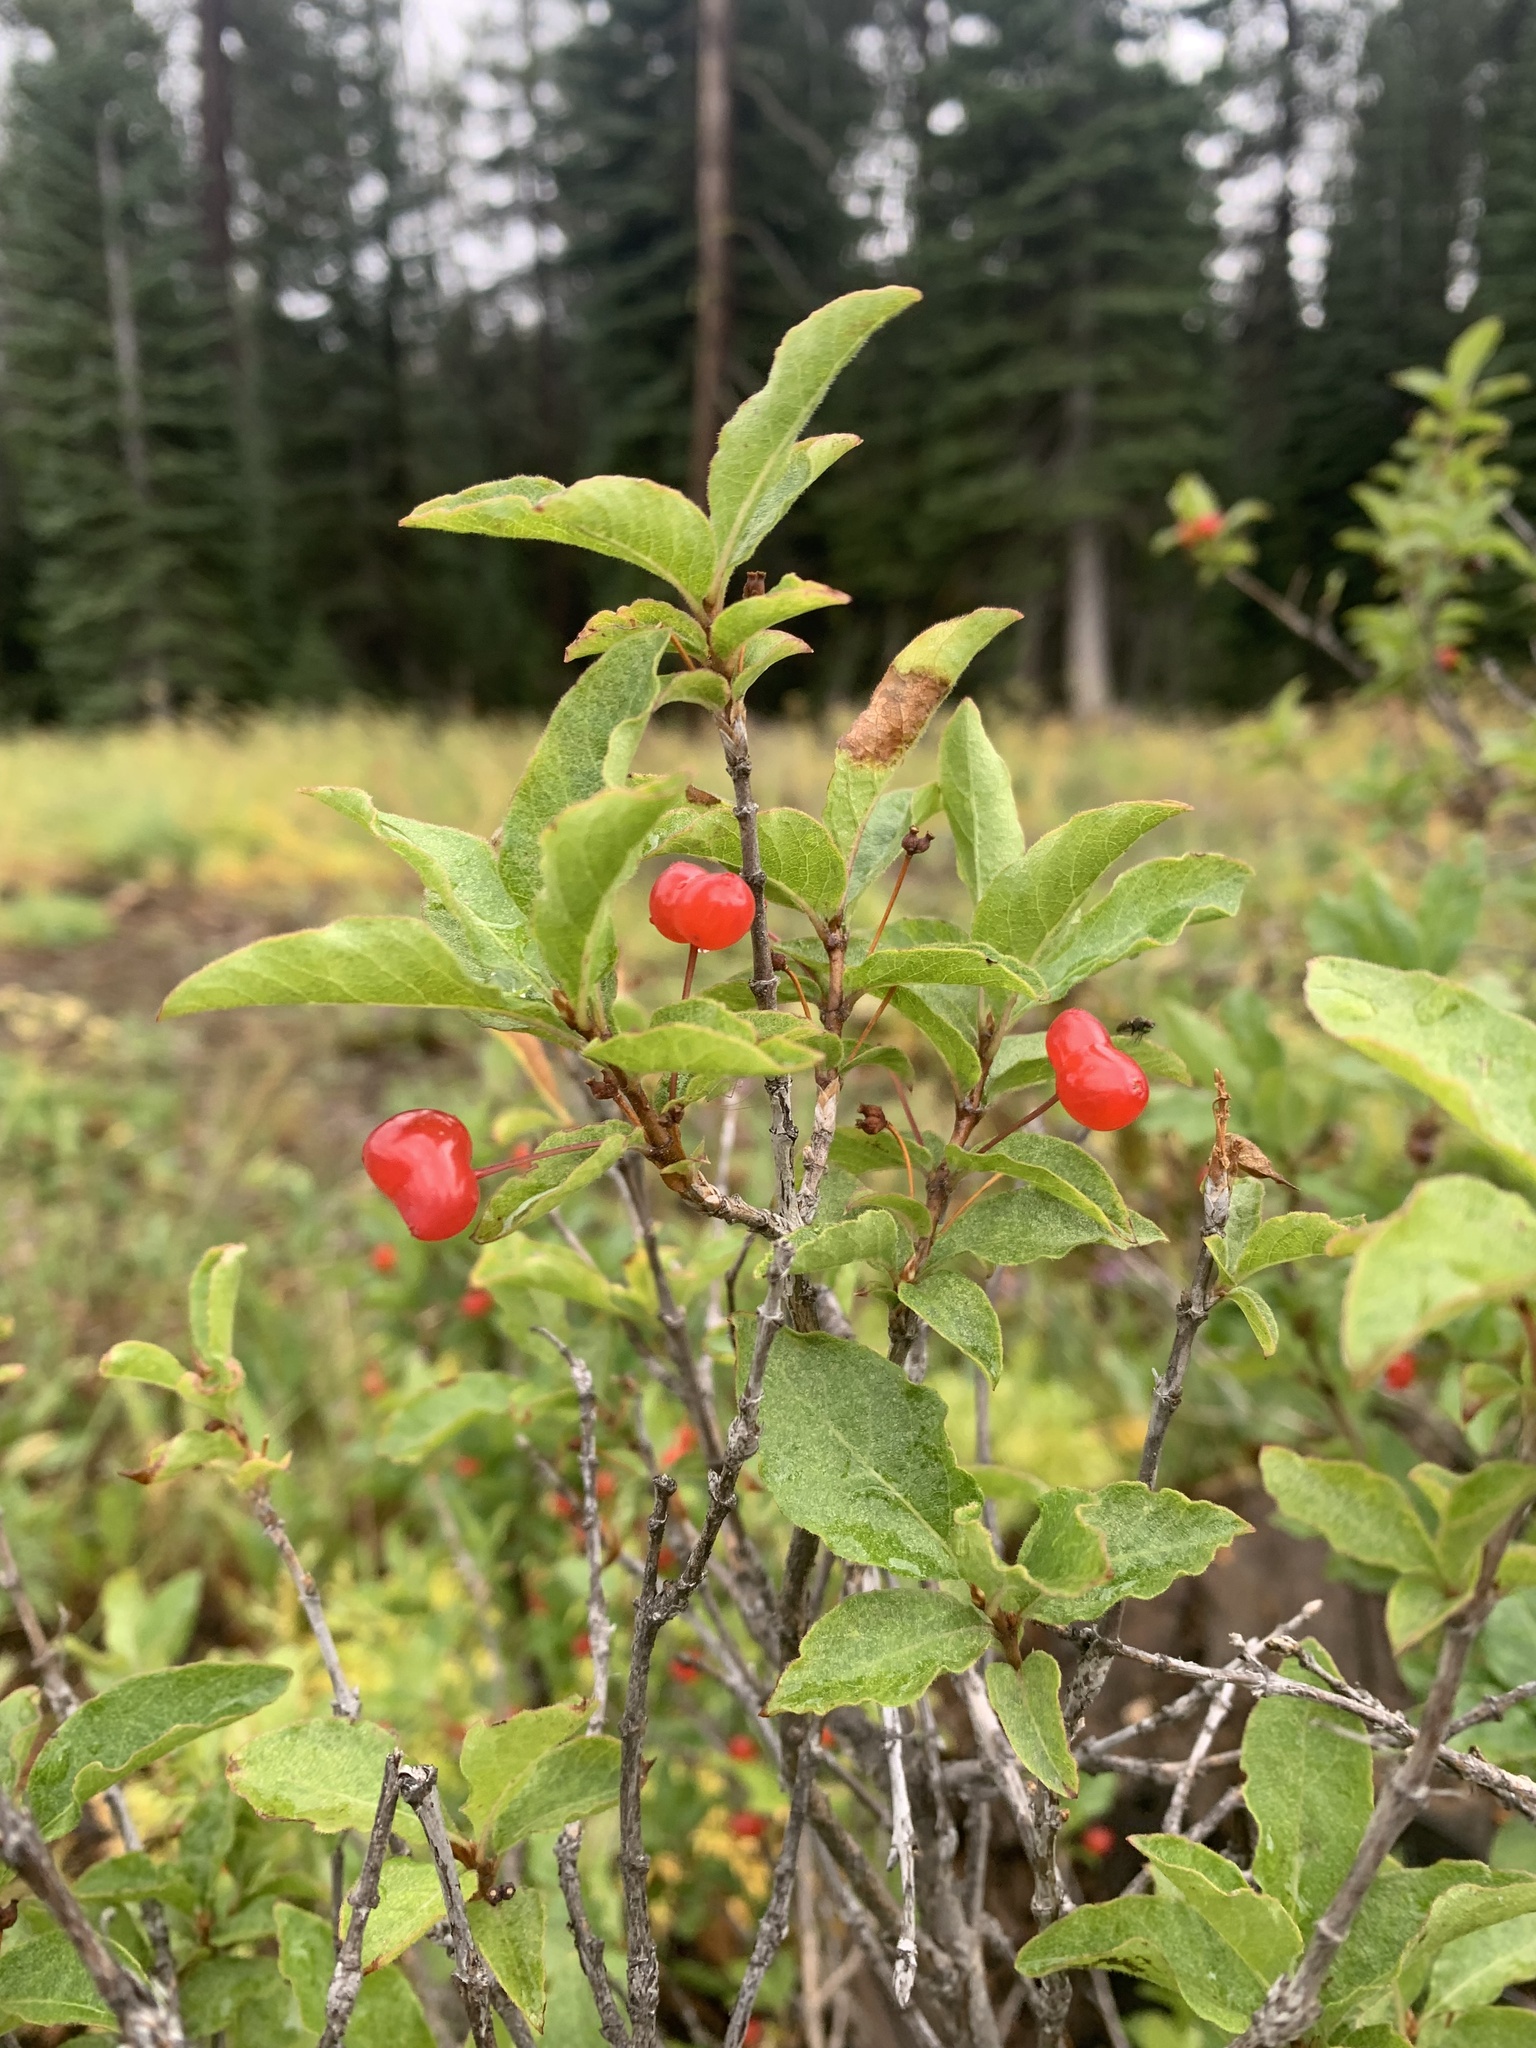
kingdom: Plantae
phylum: Tracheophyta
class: Magnoliopsida
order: Dipsacales
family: Caprifoliaceae
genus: Lonicera
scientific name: Lonicera conjugialis
